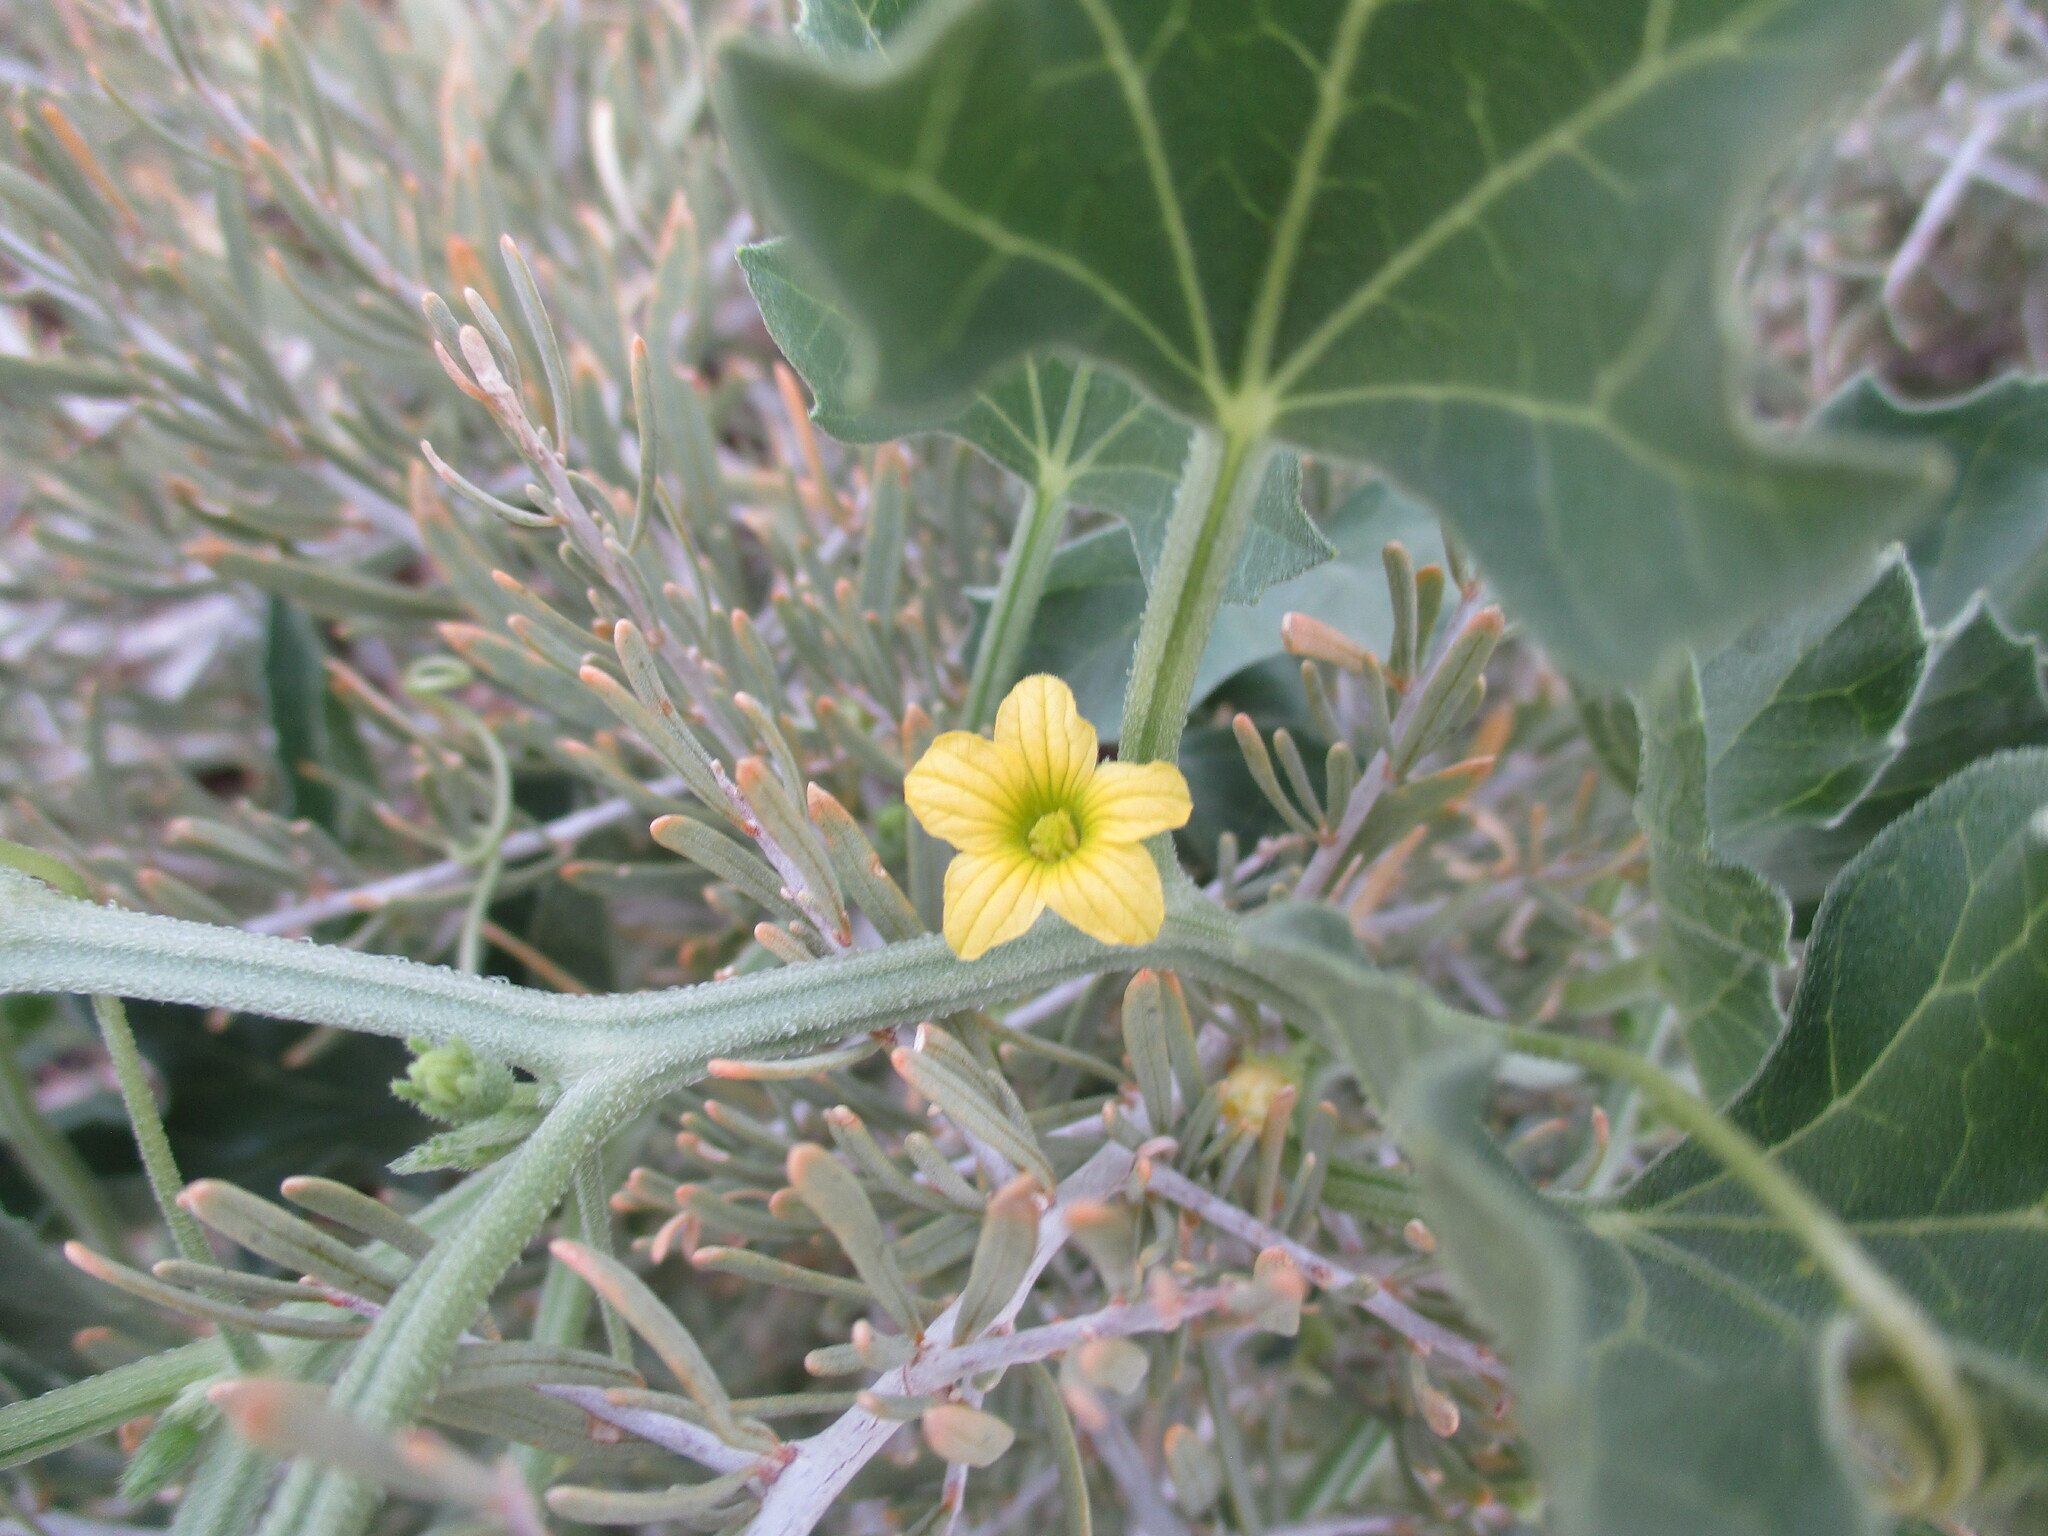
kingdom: Plantae
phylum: Tracheophyta
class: Magnoliopsida
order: Cucurbitales
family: Cucurbitaceae
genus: Cucumis
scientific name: Cucumis meeusei
